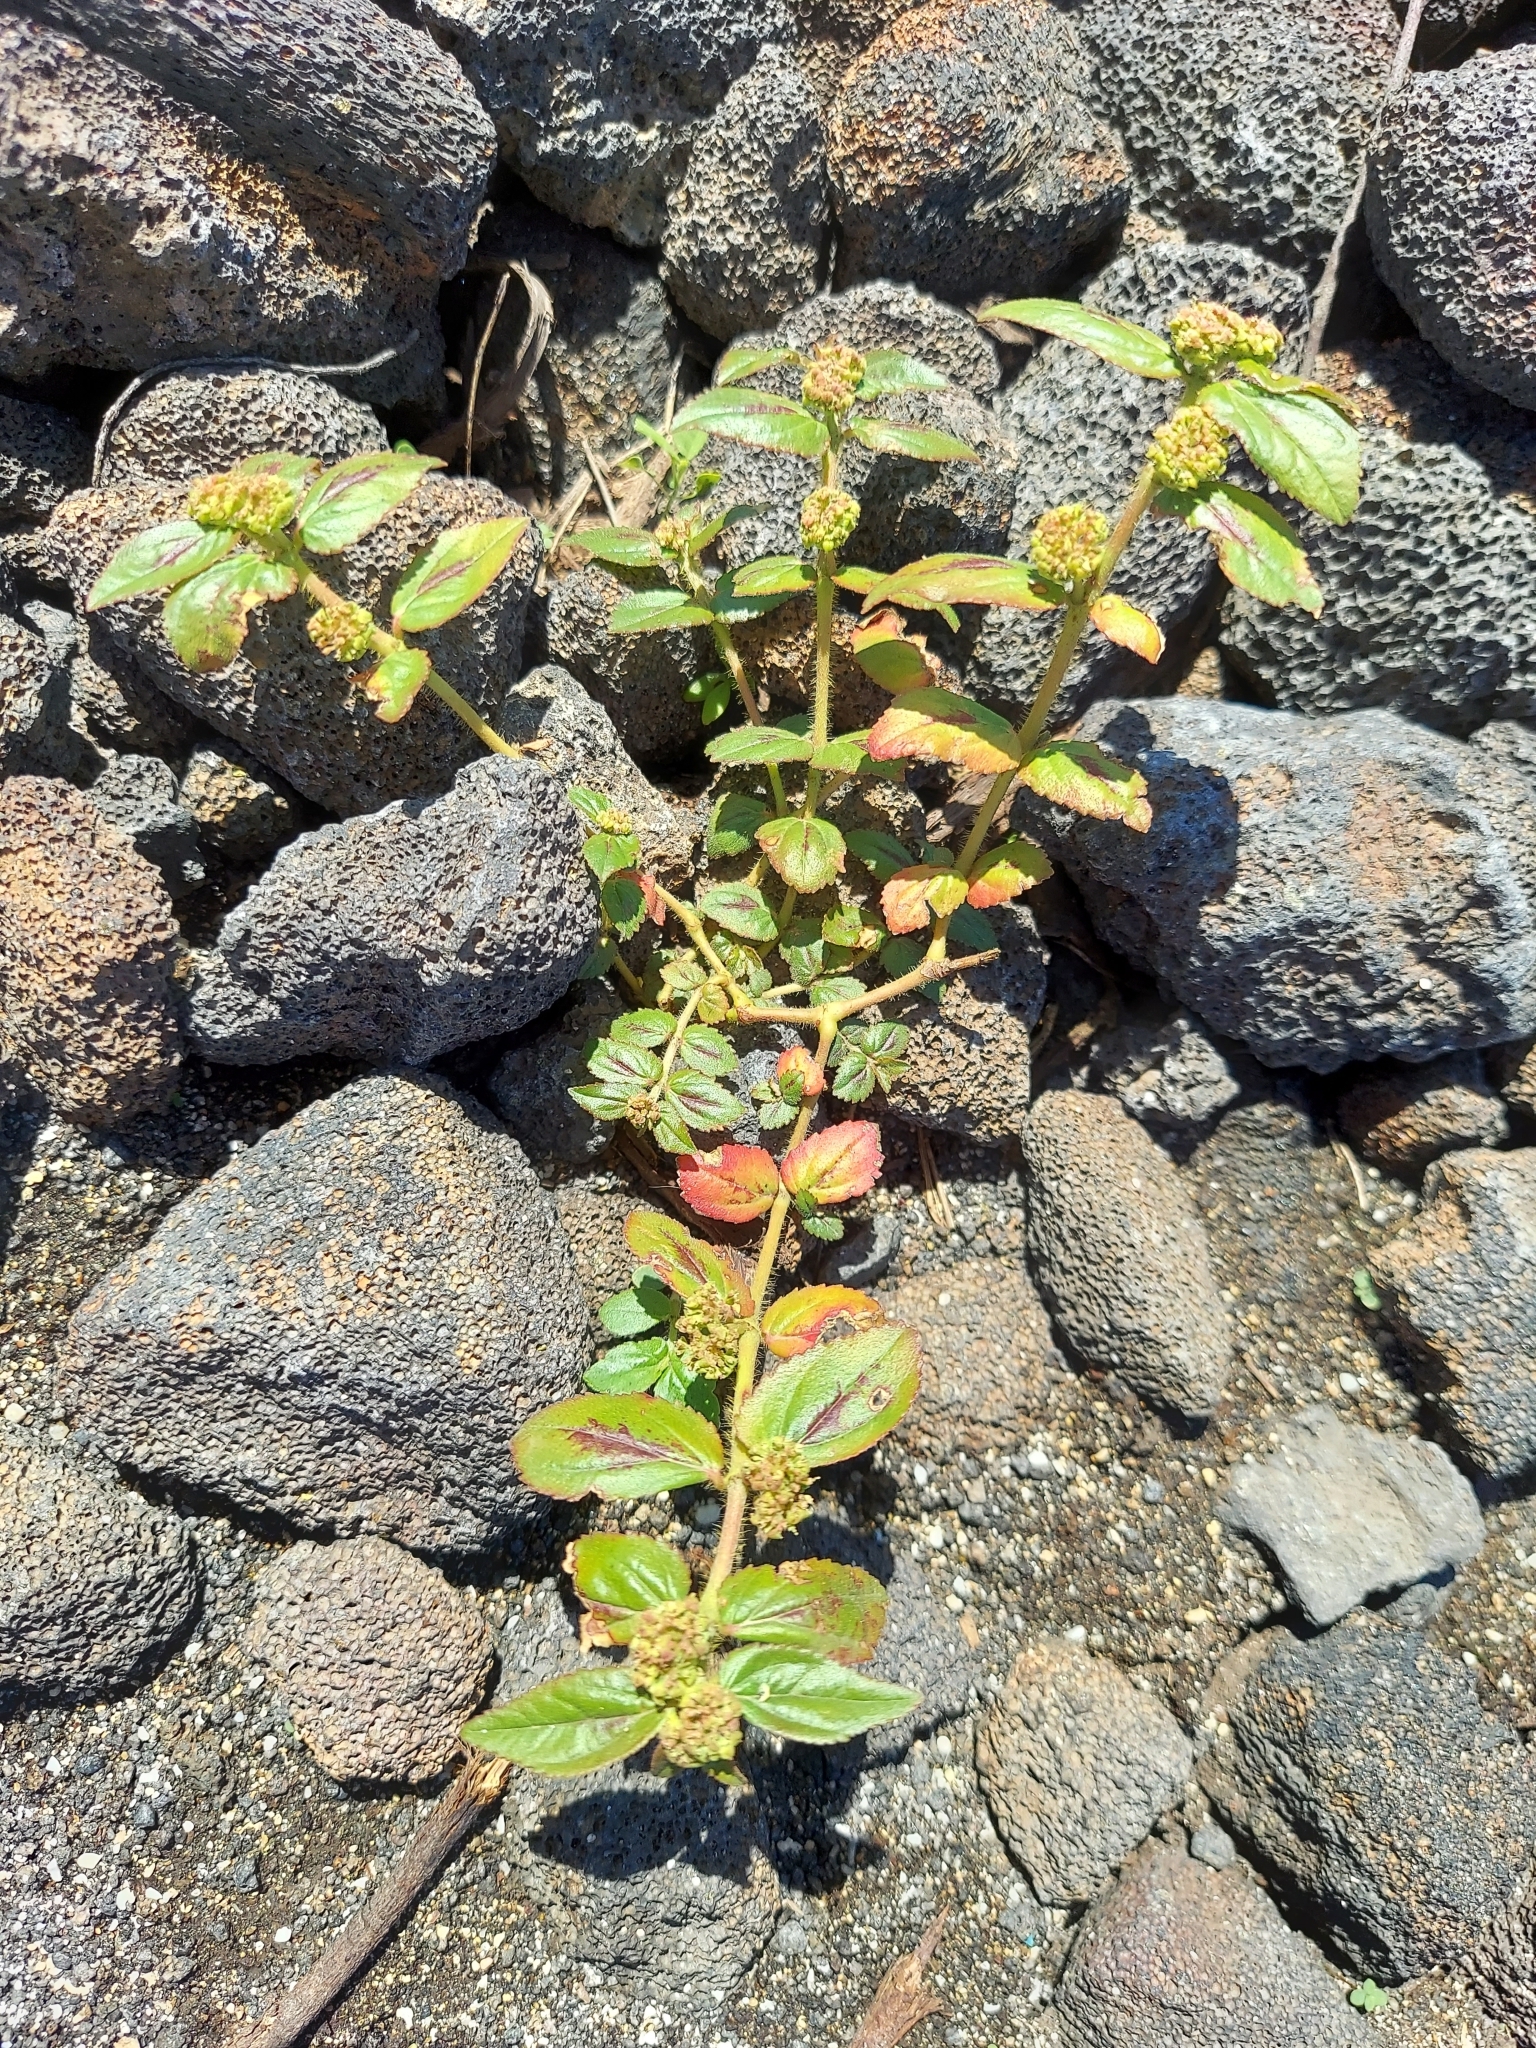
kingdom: Plantae
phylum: Tracheophyta
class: Magnoliopsida
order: Malpighiales
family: Euphorbiaceae
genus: Euphorbia
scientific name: Euphorbia hirta
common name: Pillpod sandmat
